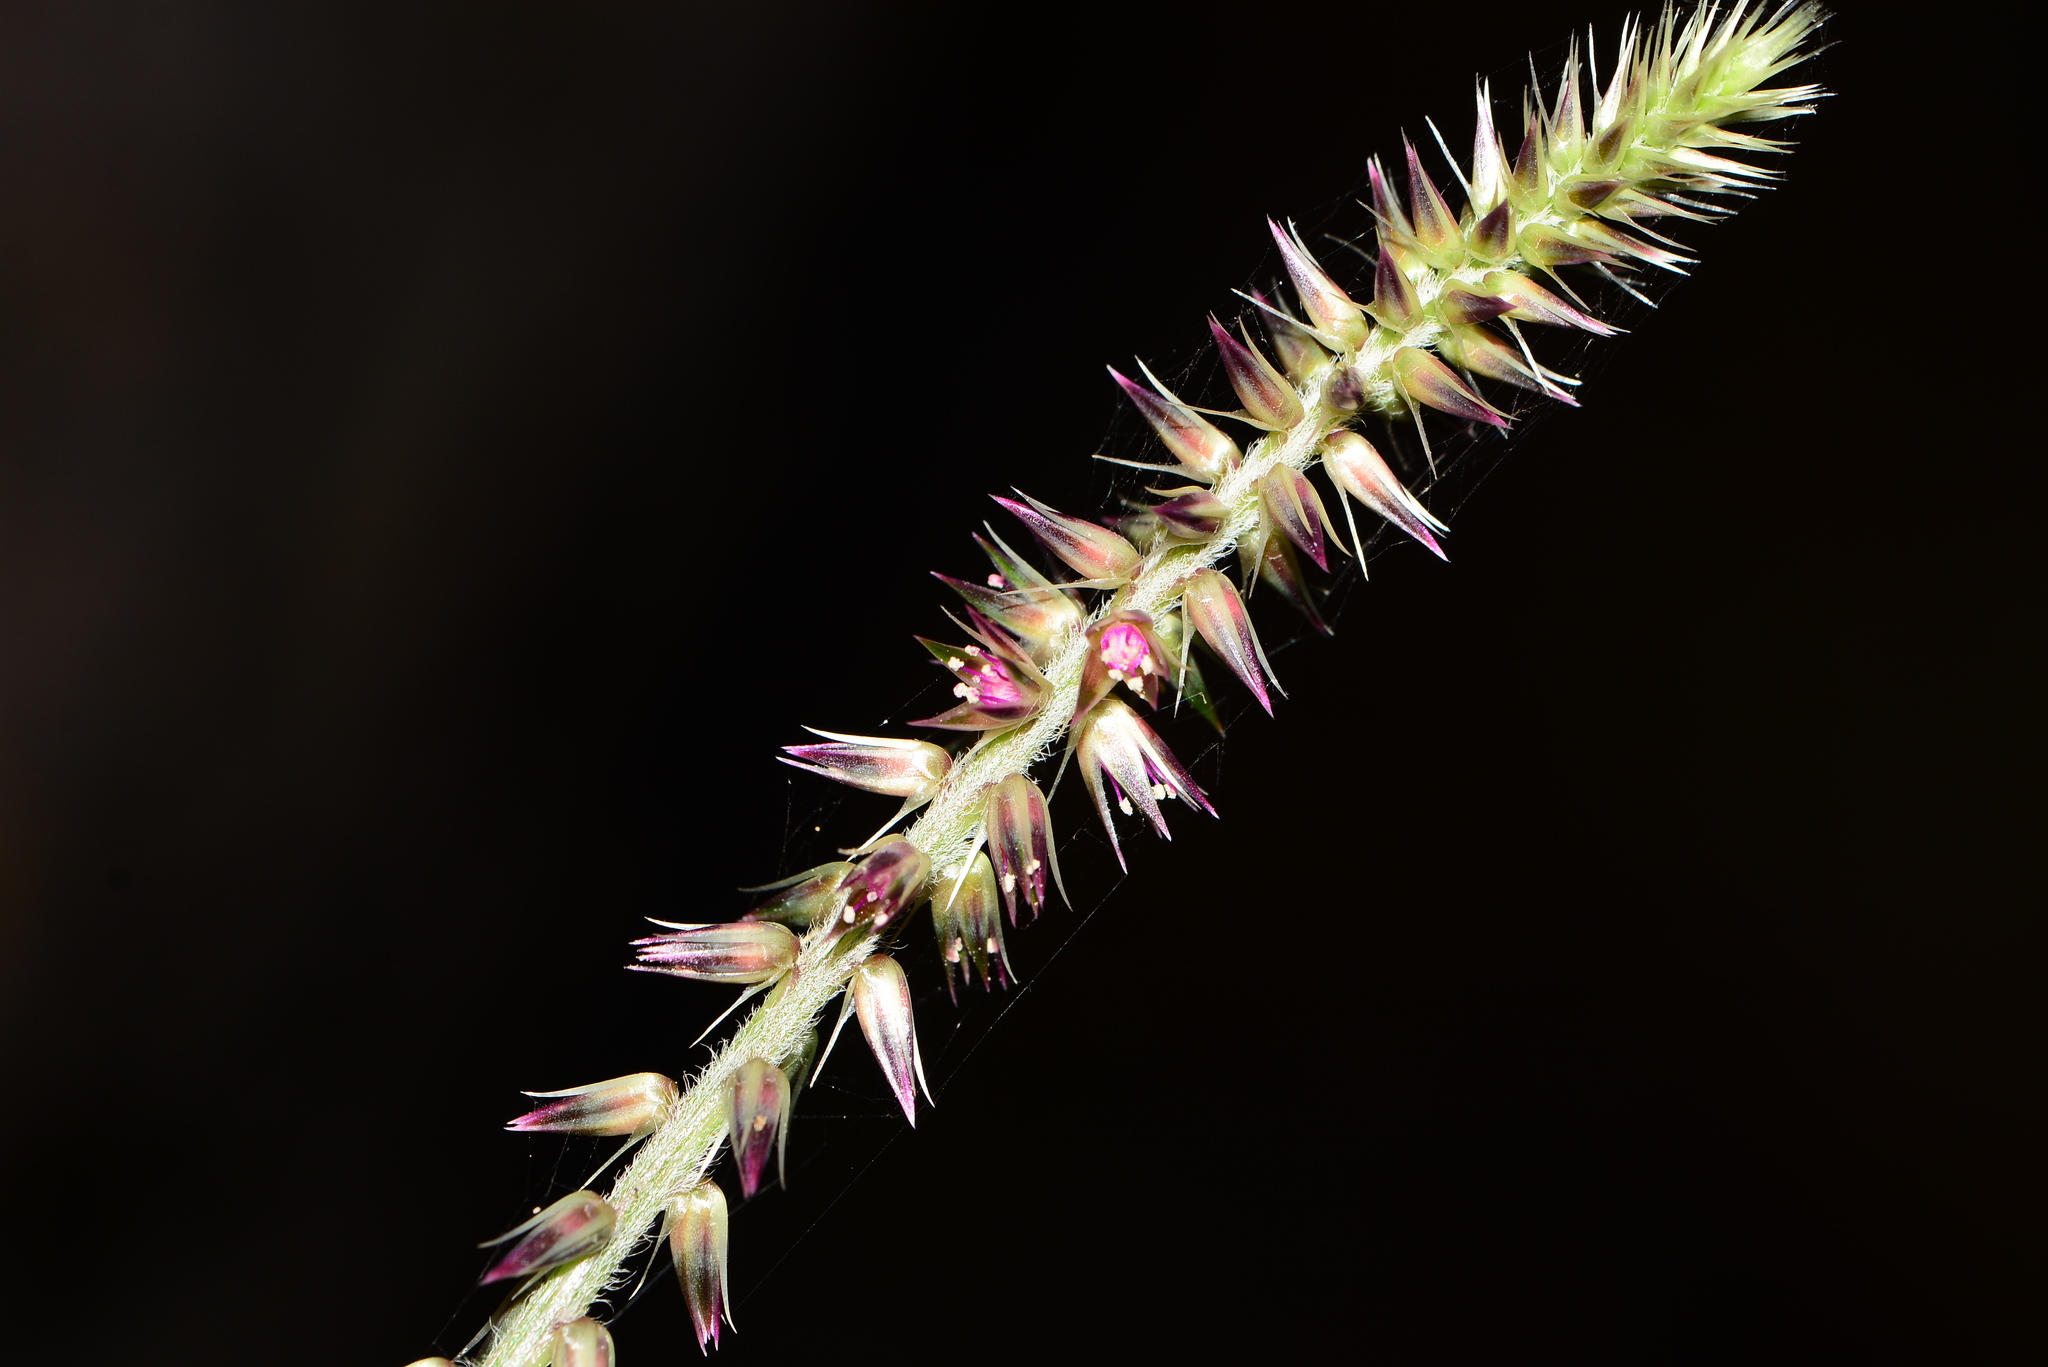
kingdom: Plantae
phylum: Tracheophyta
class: Magnoliopsida
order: Caryophyllales
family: Amaranthaceae
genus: Achyranthes
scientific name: Achyranthes coynei
